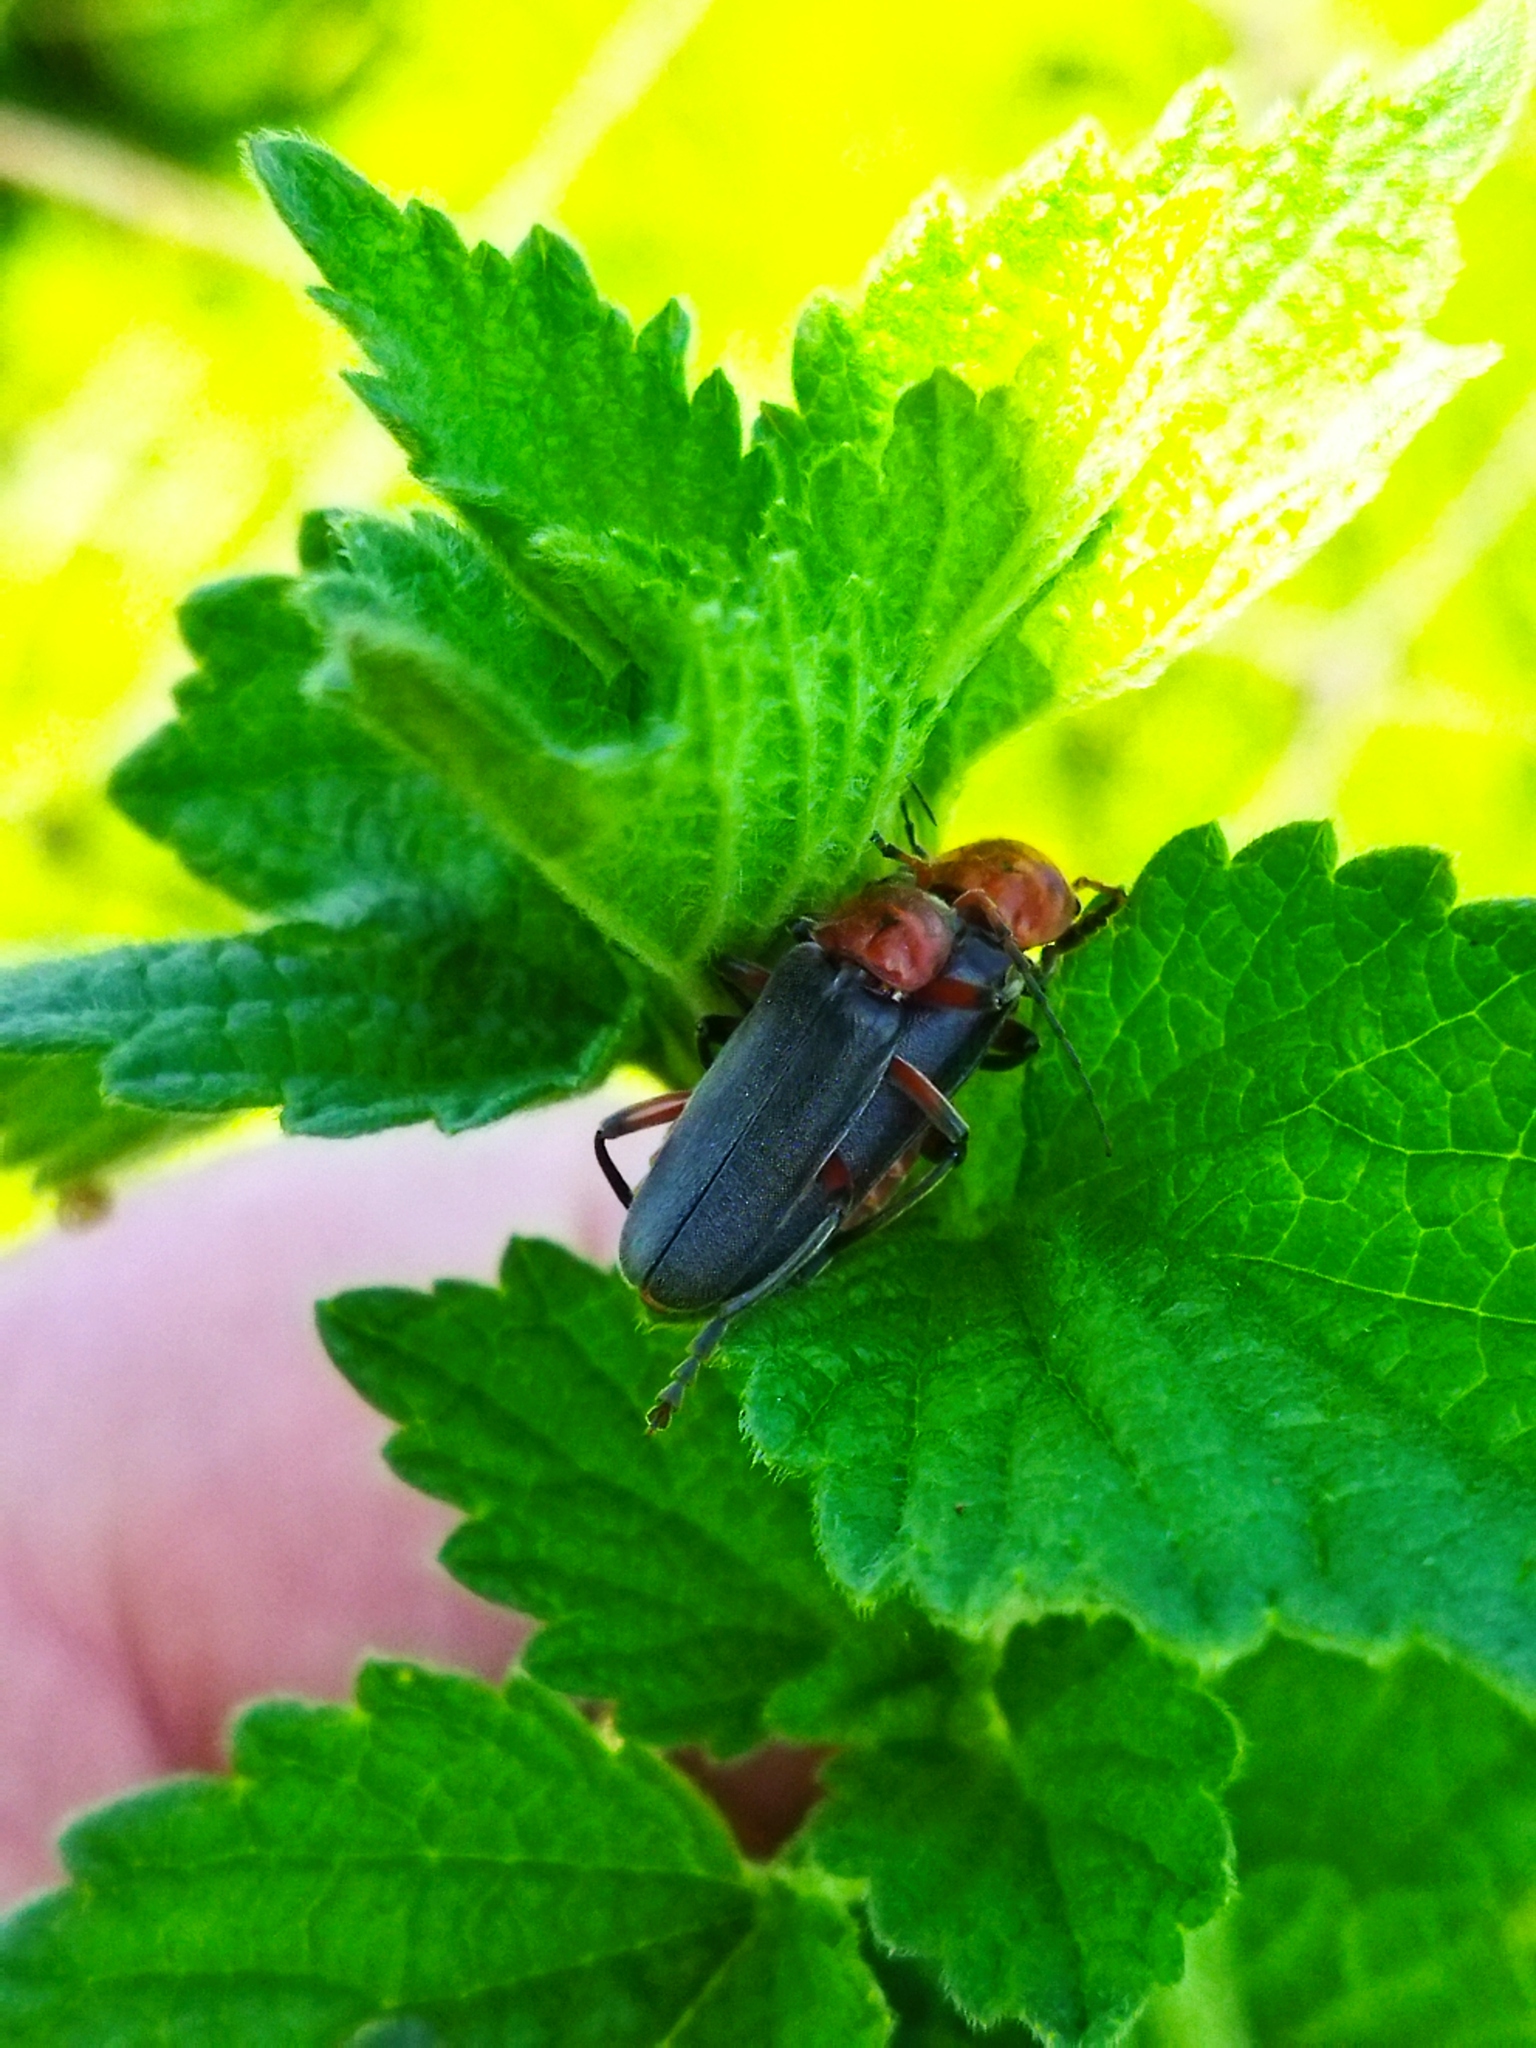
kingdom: Animalia
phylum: Arthropoda
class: Insecta
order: Coleoptera
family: Cantharidae
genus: Cantharis
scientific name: Cantharis rustica
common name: Soldier beetle
